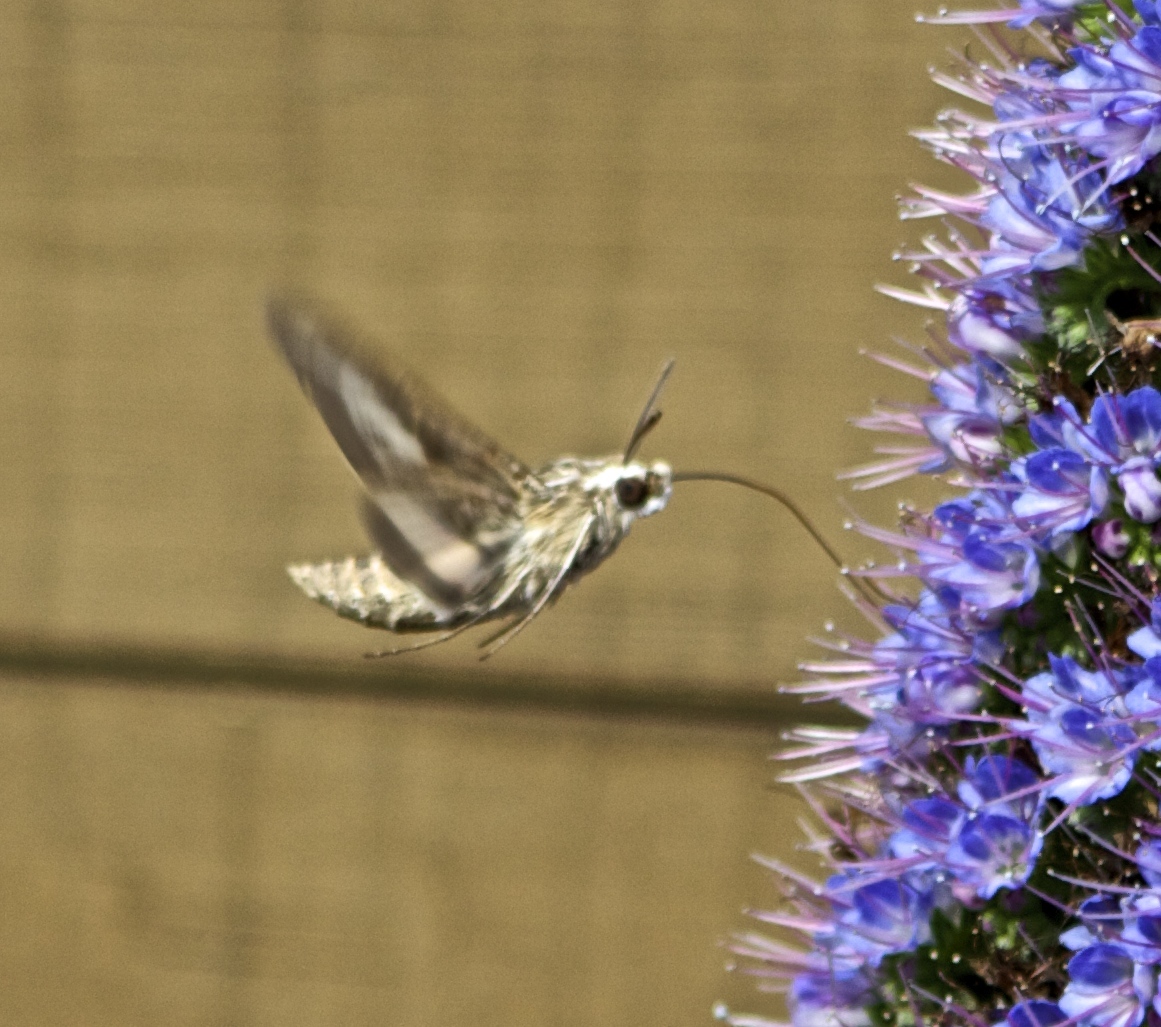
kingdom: Animalia
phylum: Arthropoda
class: Insecta
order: Lepidoptera
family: Sphingidae
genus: Hyles
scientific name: Hyles lineata
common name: White-lined sphinx
